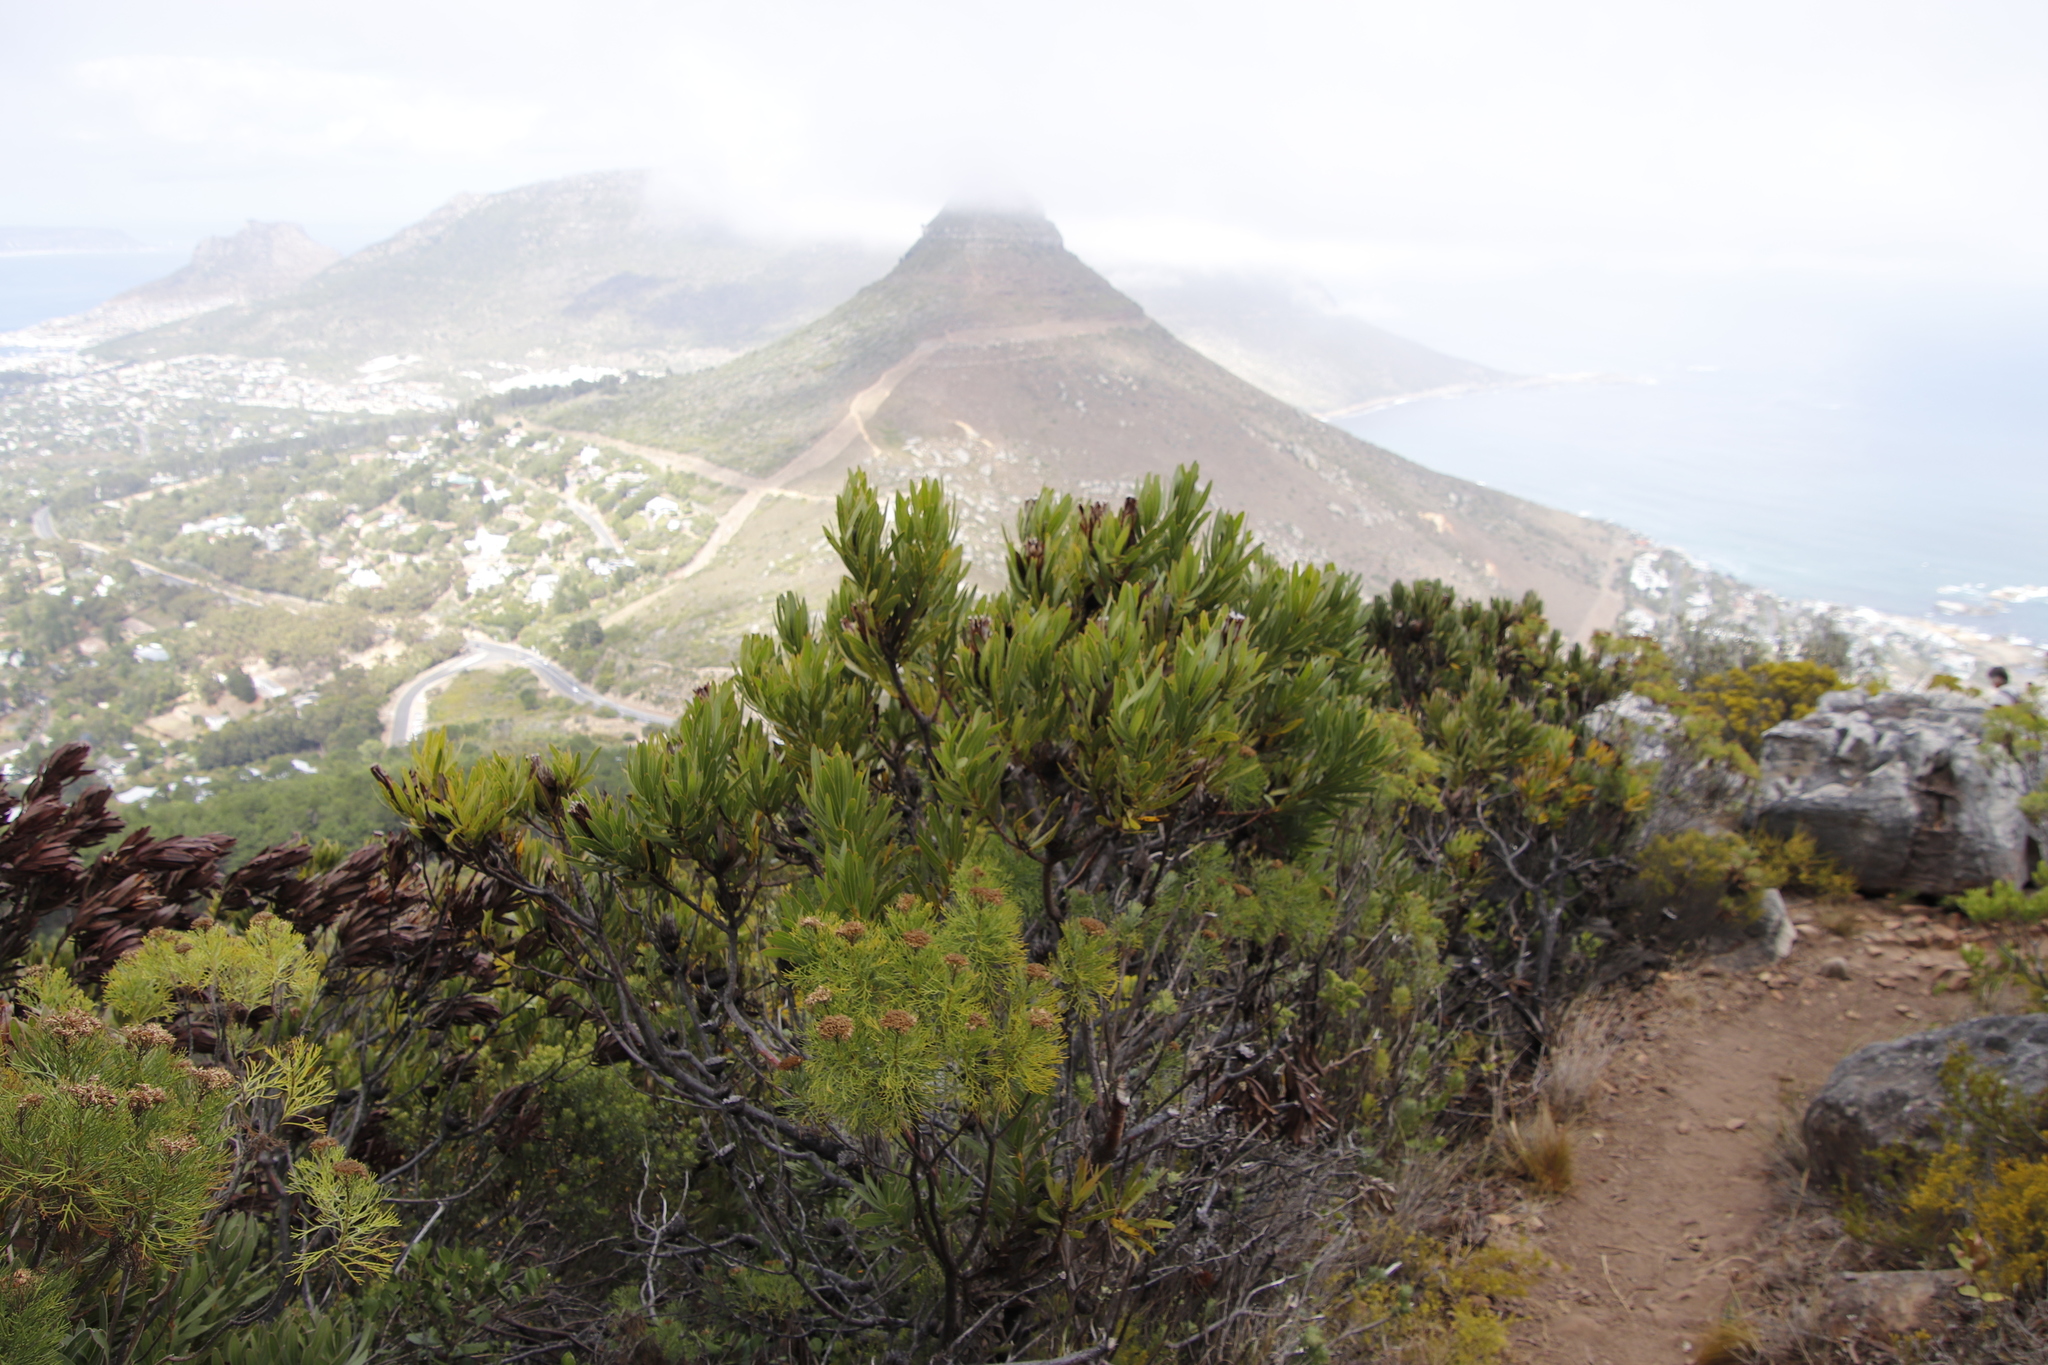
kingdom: Plantae
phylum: Tracheophyta
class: Magnoliopsida
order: Proteales
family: Proteaceae
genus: Protea
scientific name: Protea lepidocarpodendron
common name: Black-bearded protea
